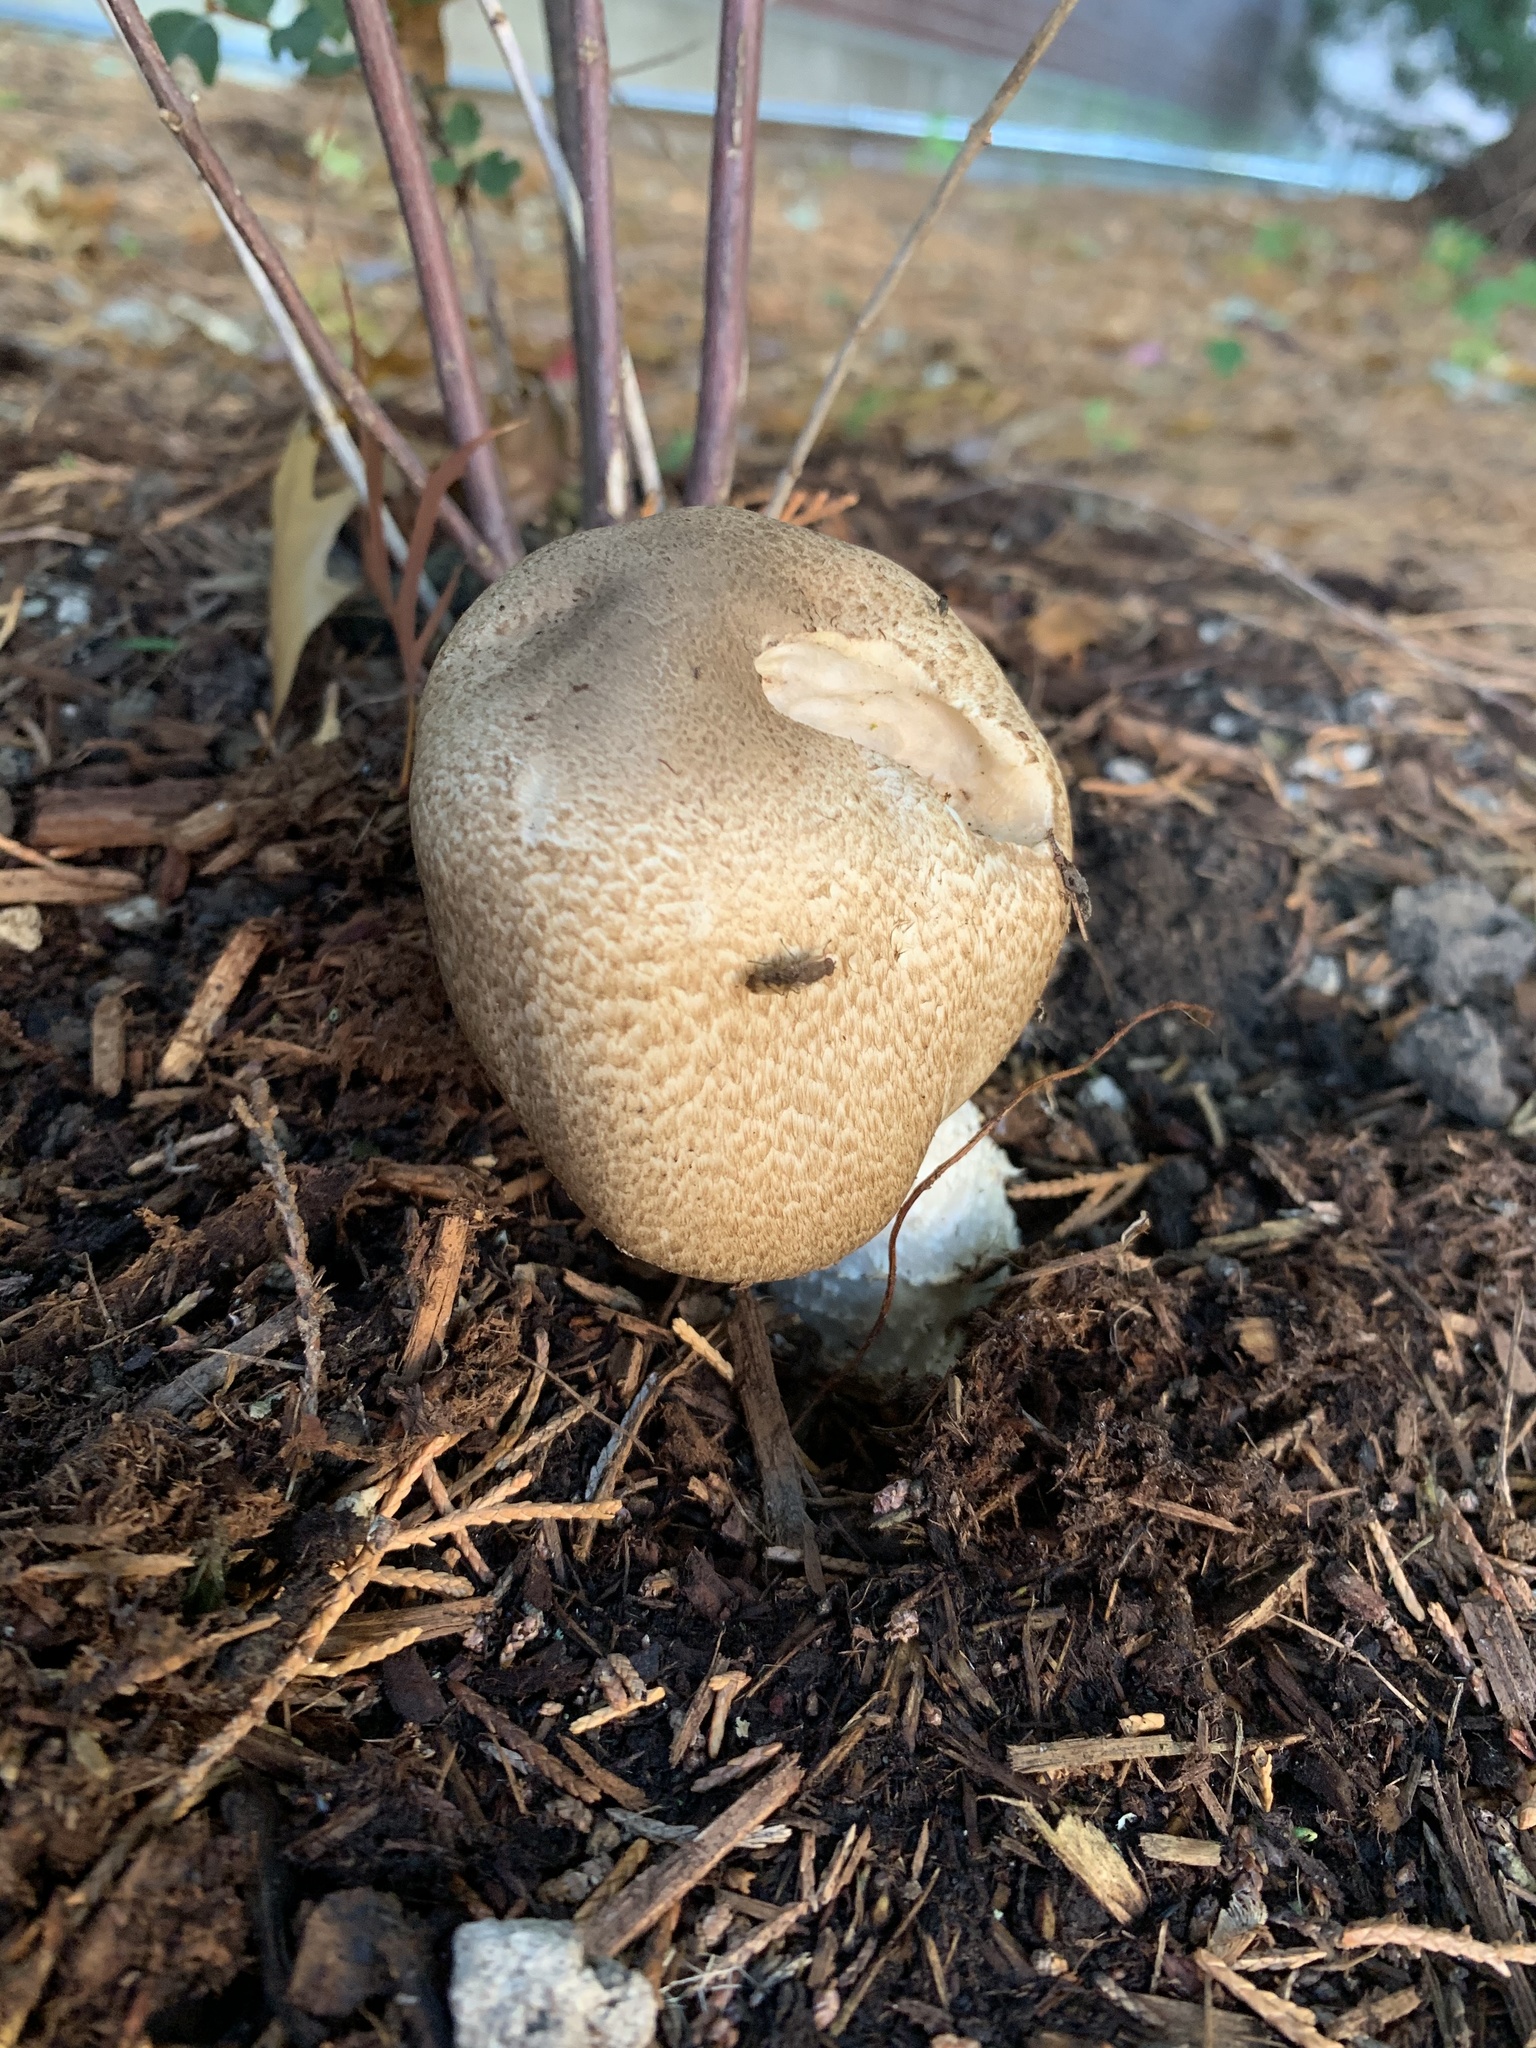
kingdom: Fungi
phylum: Basidiomycota
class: Agaricomycetes
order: Agaricales
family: Agaricaceae
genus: Agaricus
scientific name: Agaricus augustus
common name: Prince
